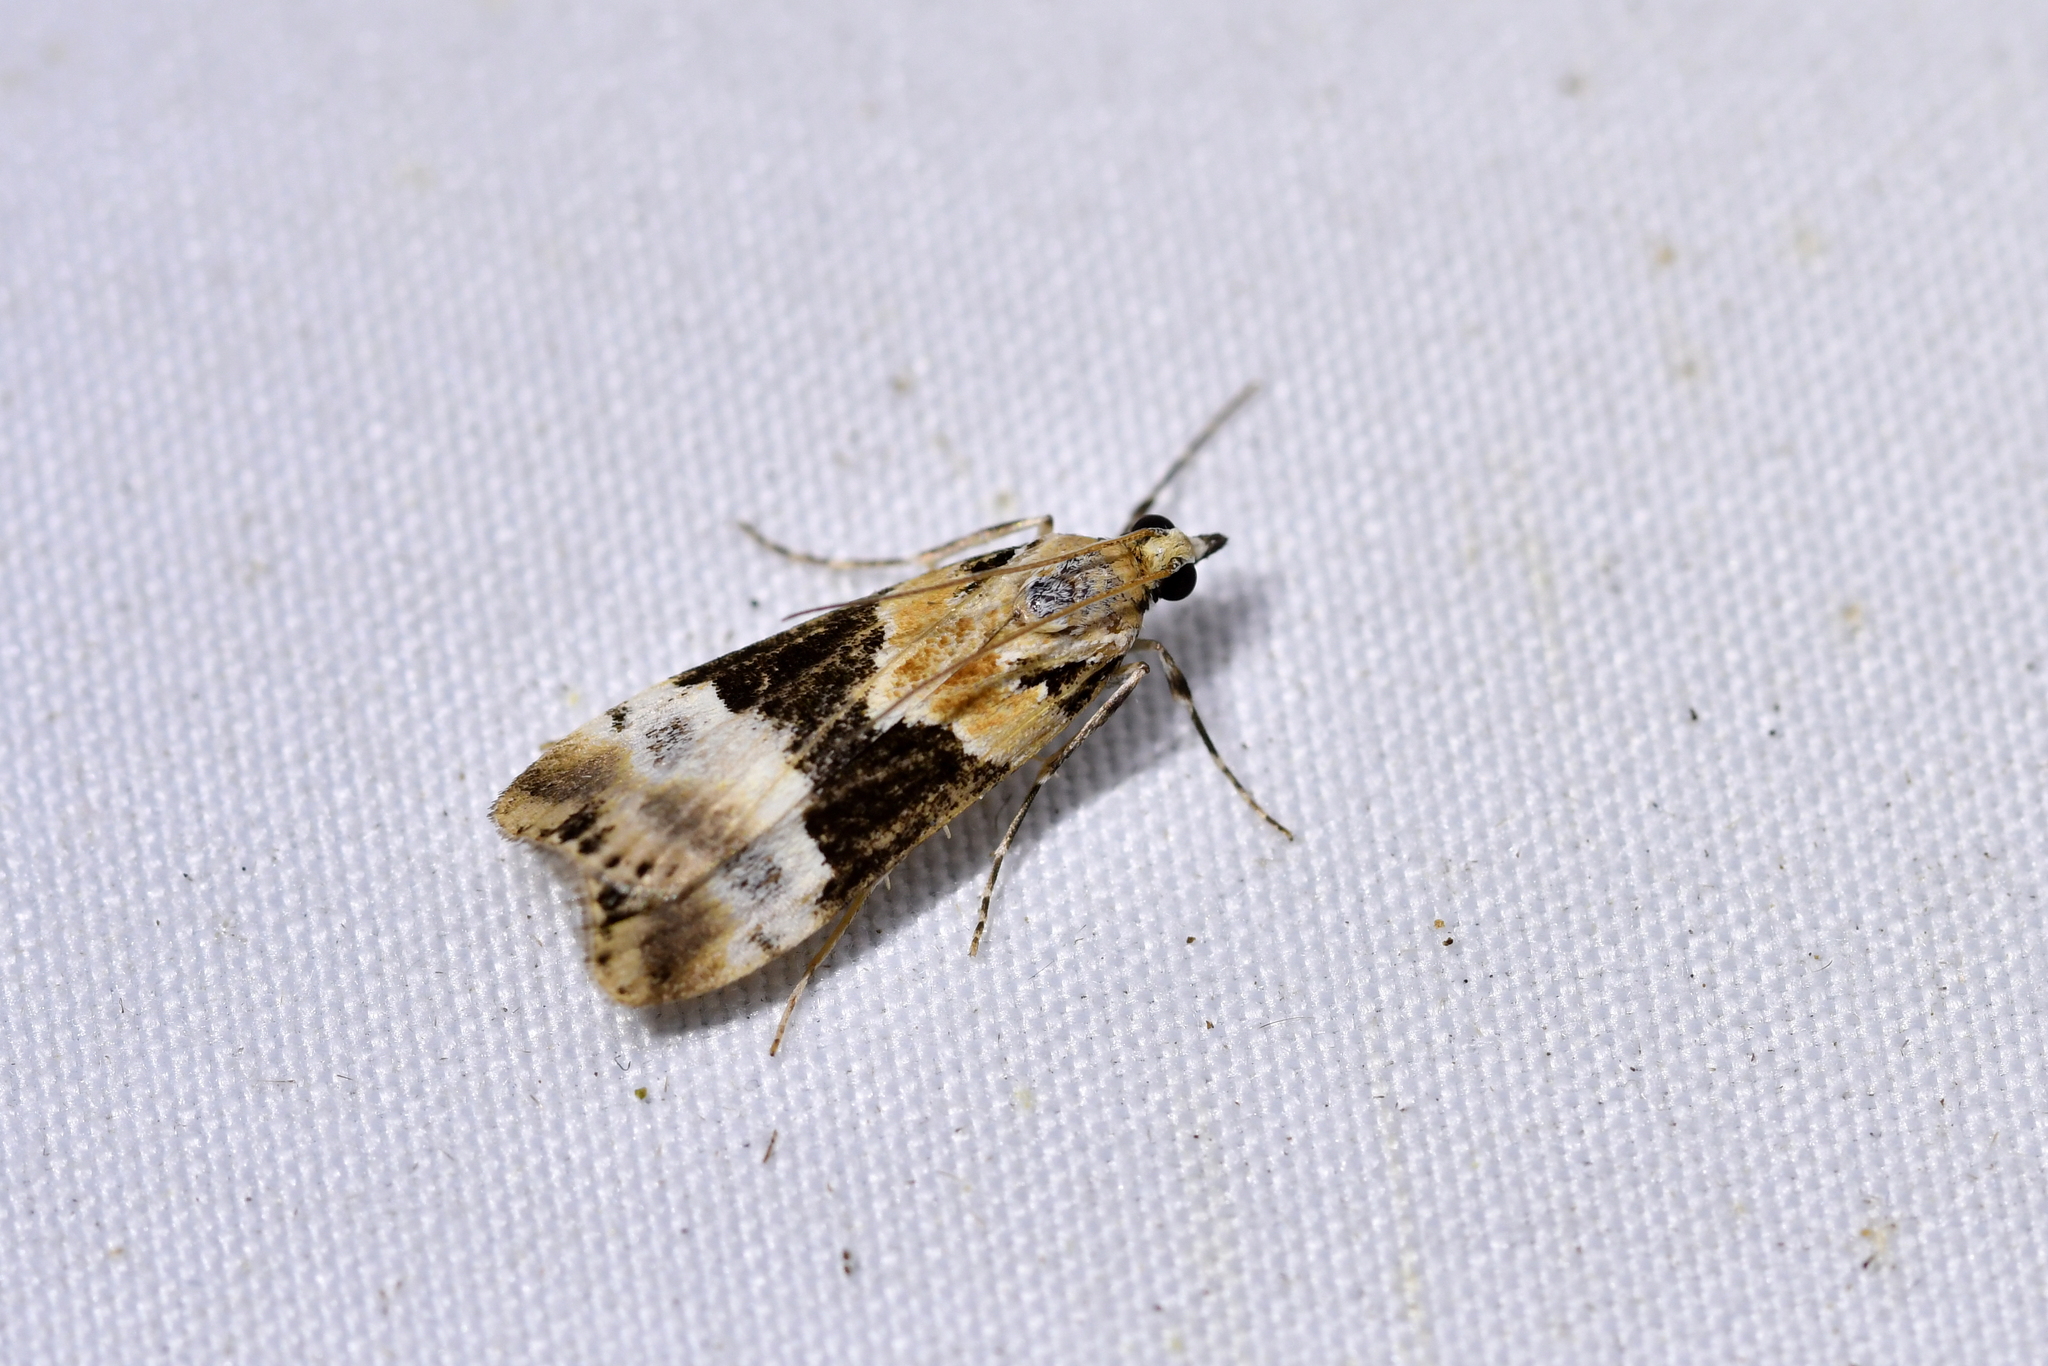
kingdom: Animalia
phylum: Arthropoda
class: Insecta
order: Lepidoptera
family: Crambidae
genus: Eudonia
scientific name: Eudonia aspidota
